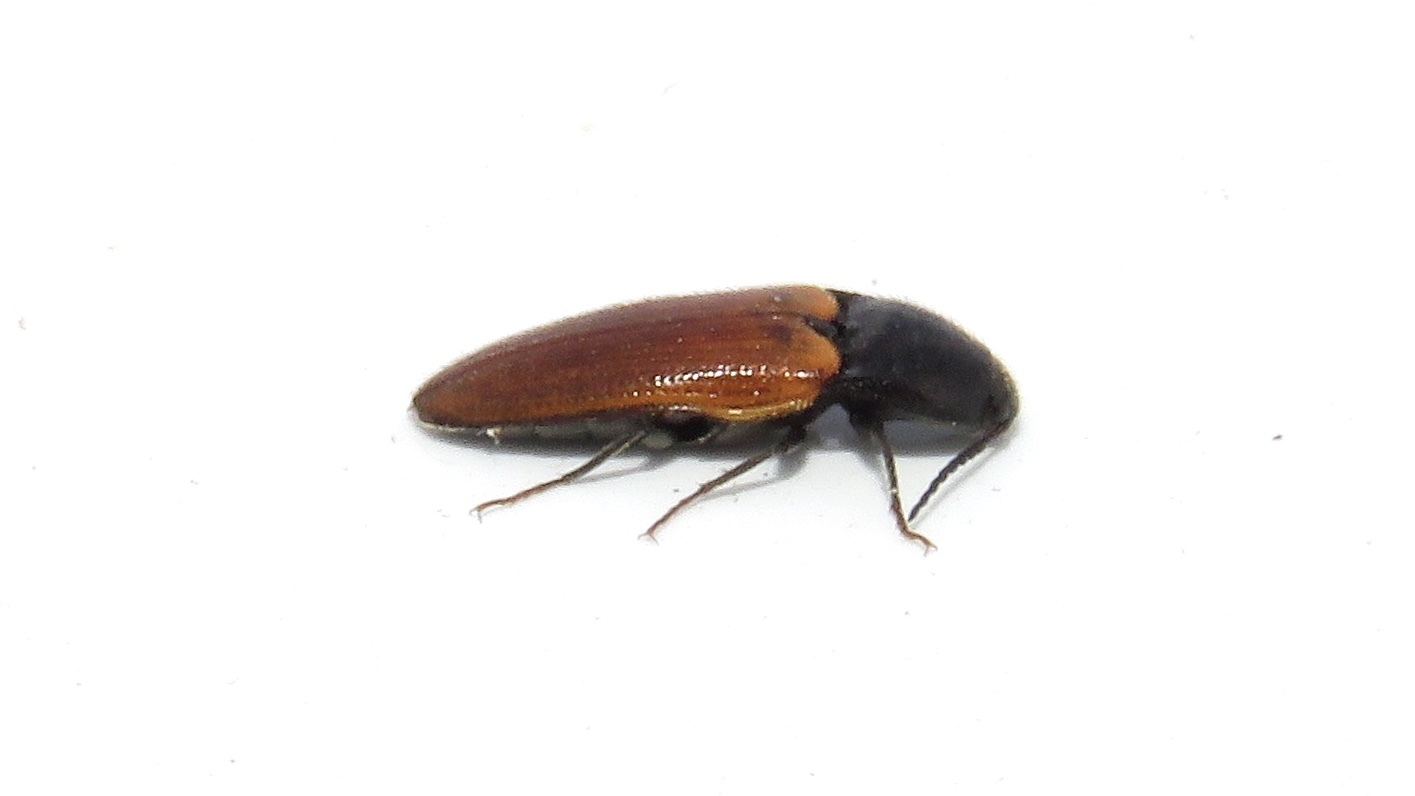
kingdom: Animalia
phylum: Arthropoda
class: Insecta
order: Coleoptera
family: Elateridae
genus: Ampedus
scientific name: Ampedus sanguinipennis
